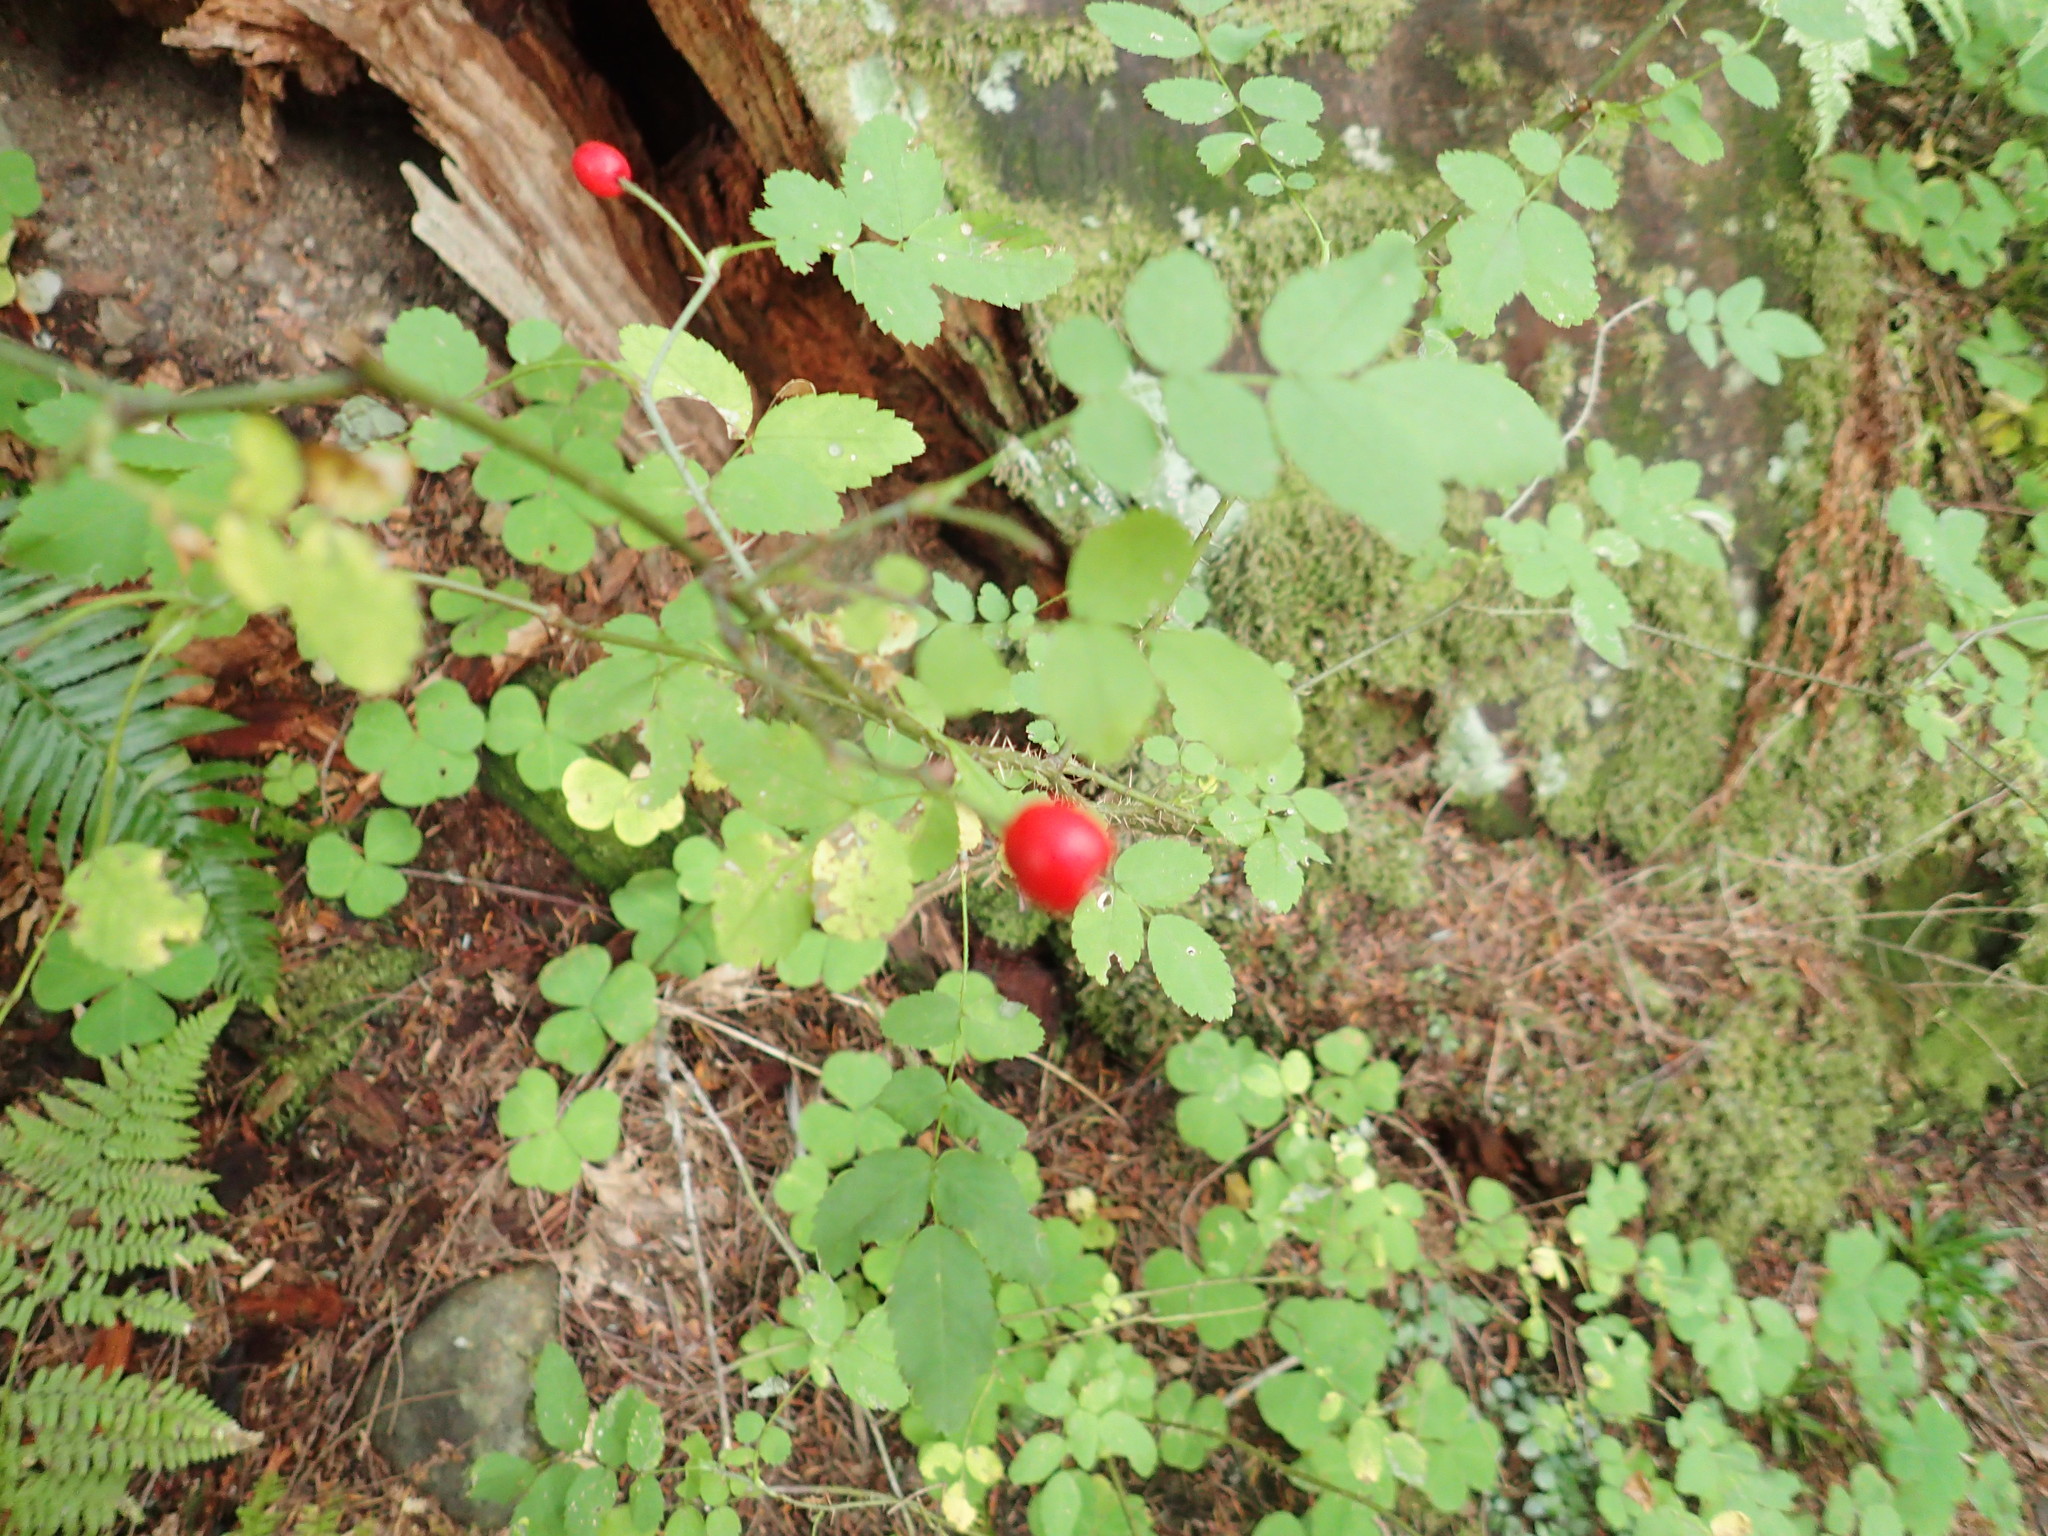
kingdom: Plantae
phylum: Tracheophyta
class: Magnoliopsida
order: Rosales
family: Rosaceae
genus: Rosa
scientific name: Rosa gymnocarpa
